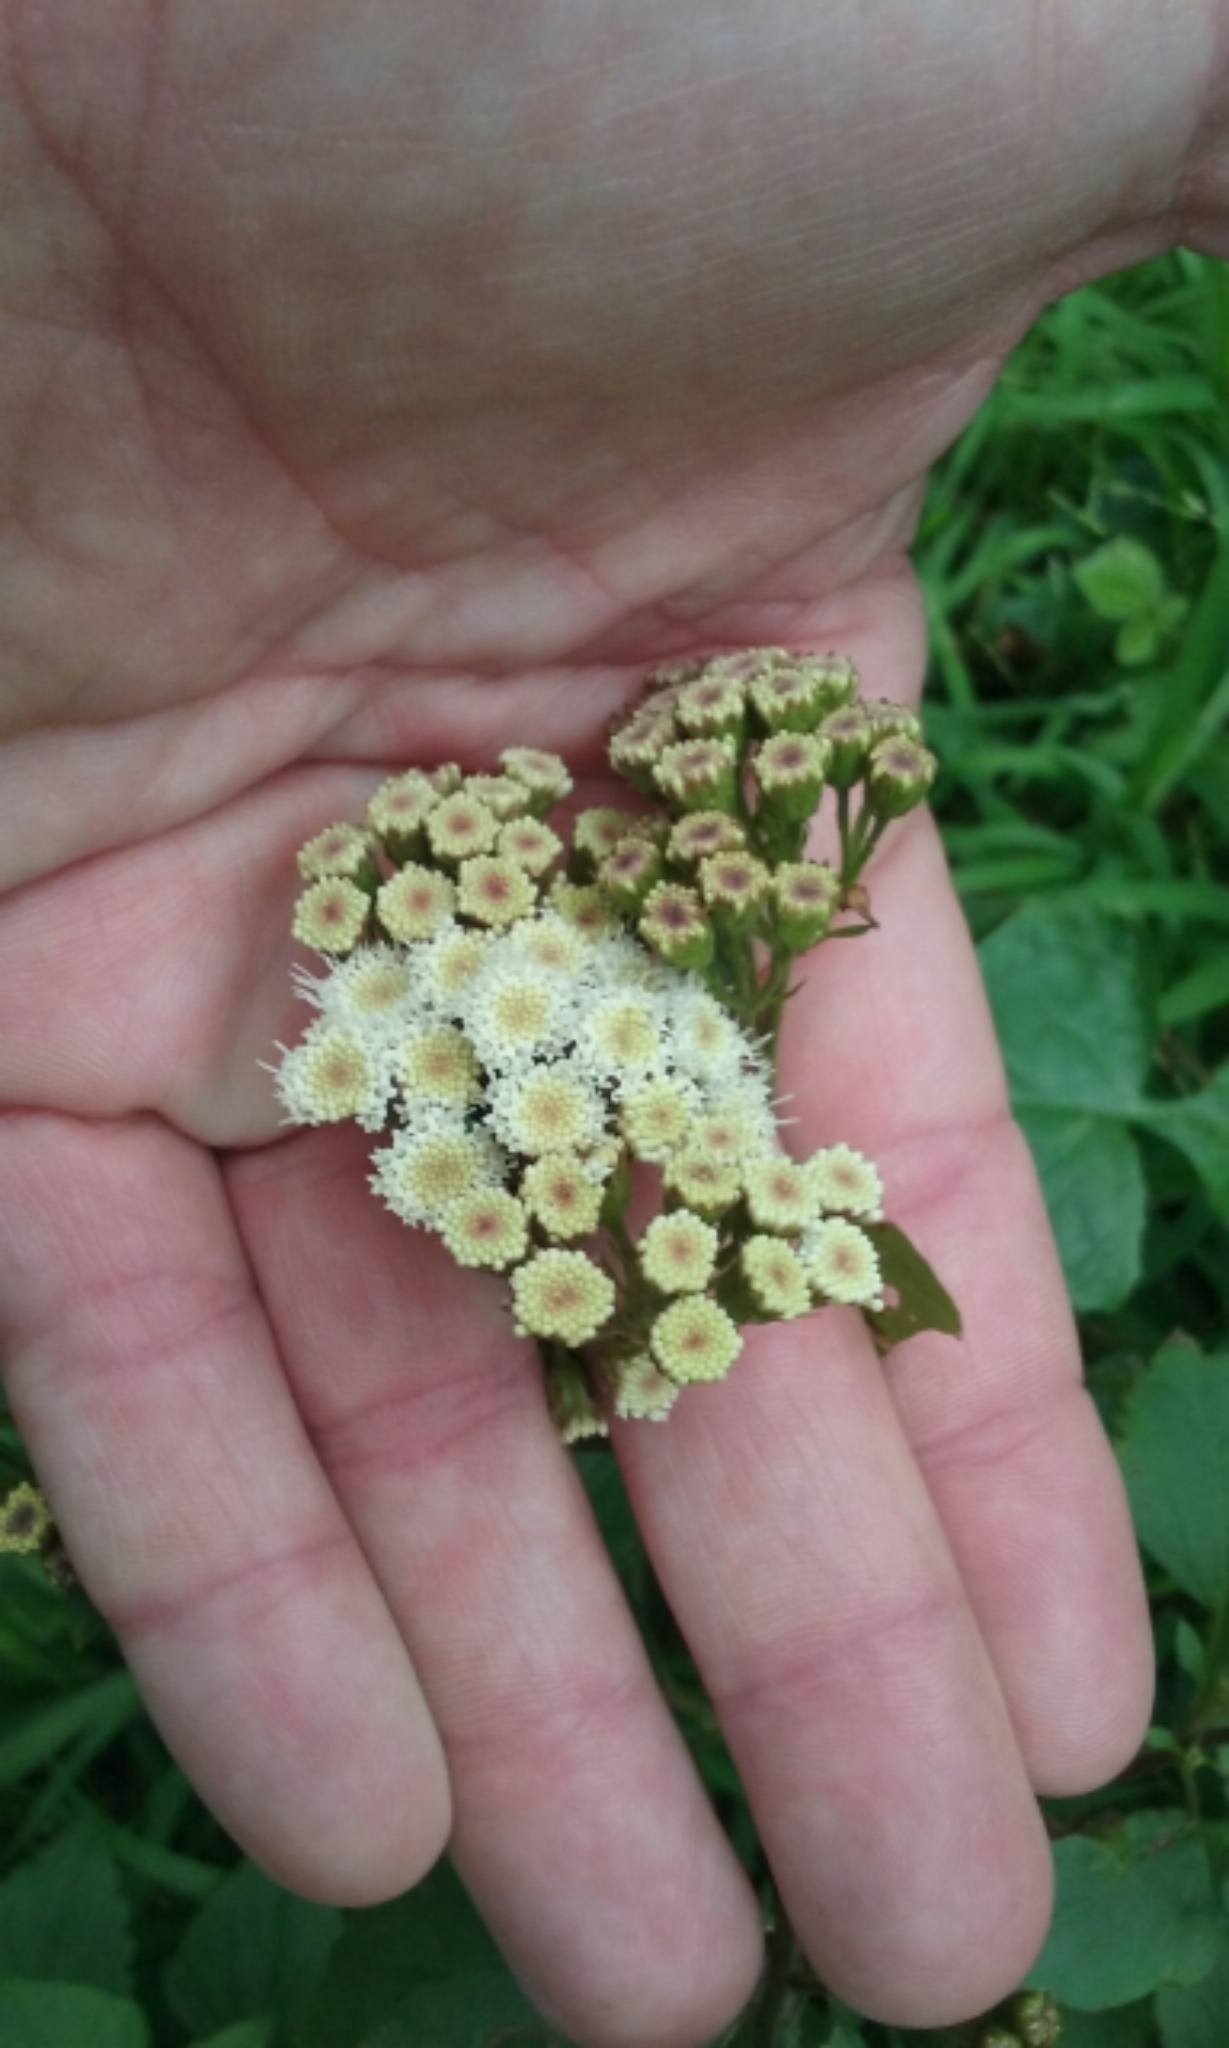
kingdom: Plantae
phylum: Tracheophyta
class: Magnoliopsida
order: Asterales
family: Asteraceae
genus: Ageratina
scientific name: Ageratina adenophora
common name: Sticky snakeroot
